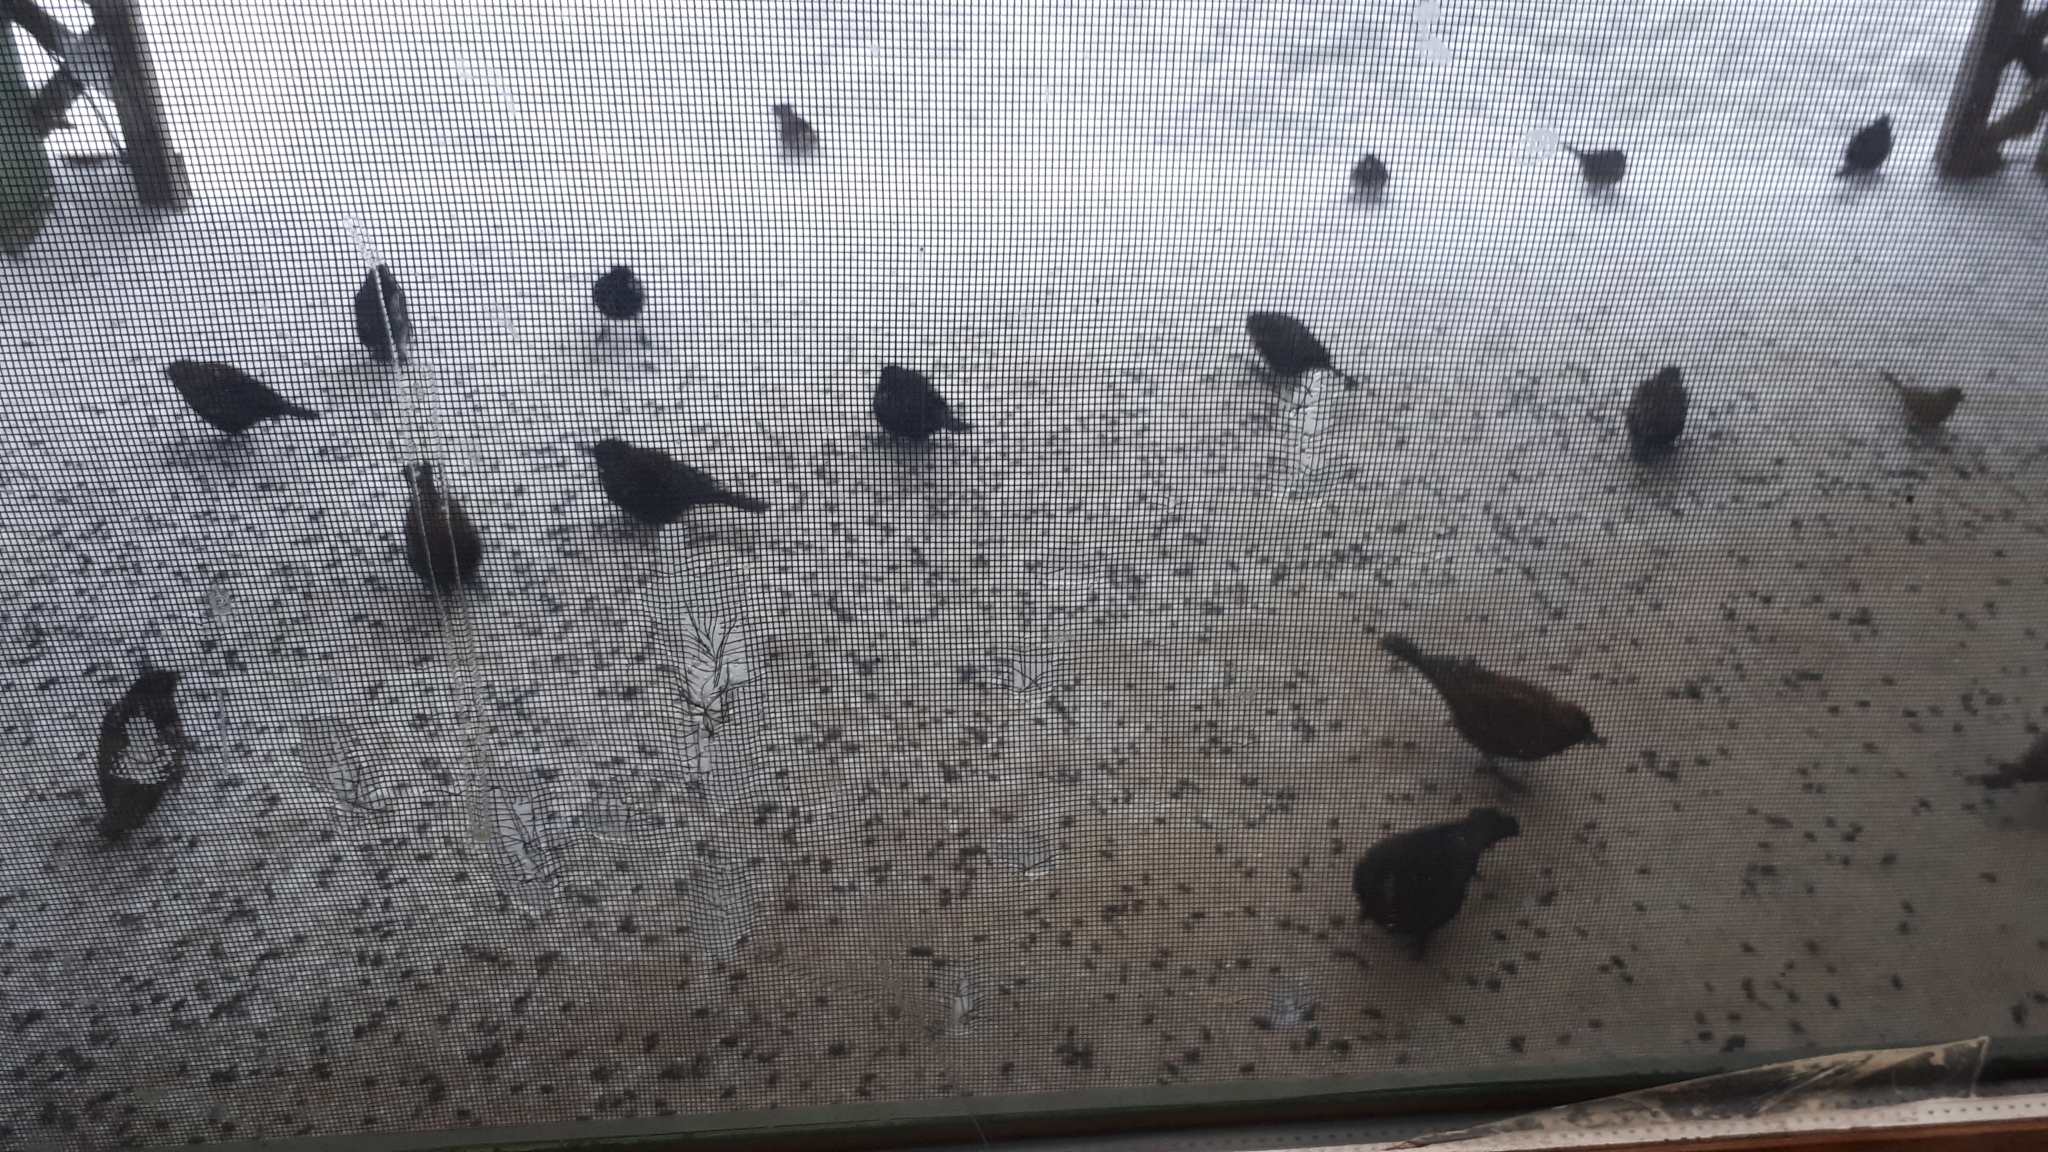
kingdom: Animalia
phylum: Chordata
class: Aves
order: Passeriformes
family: Icteridae
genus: Agelaius
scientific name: Agelaius phoeniceus
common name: Red-winged blackbird
